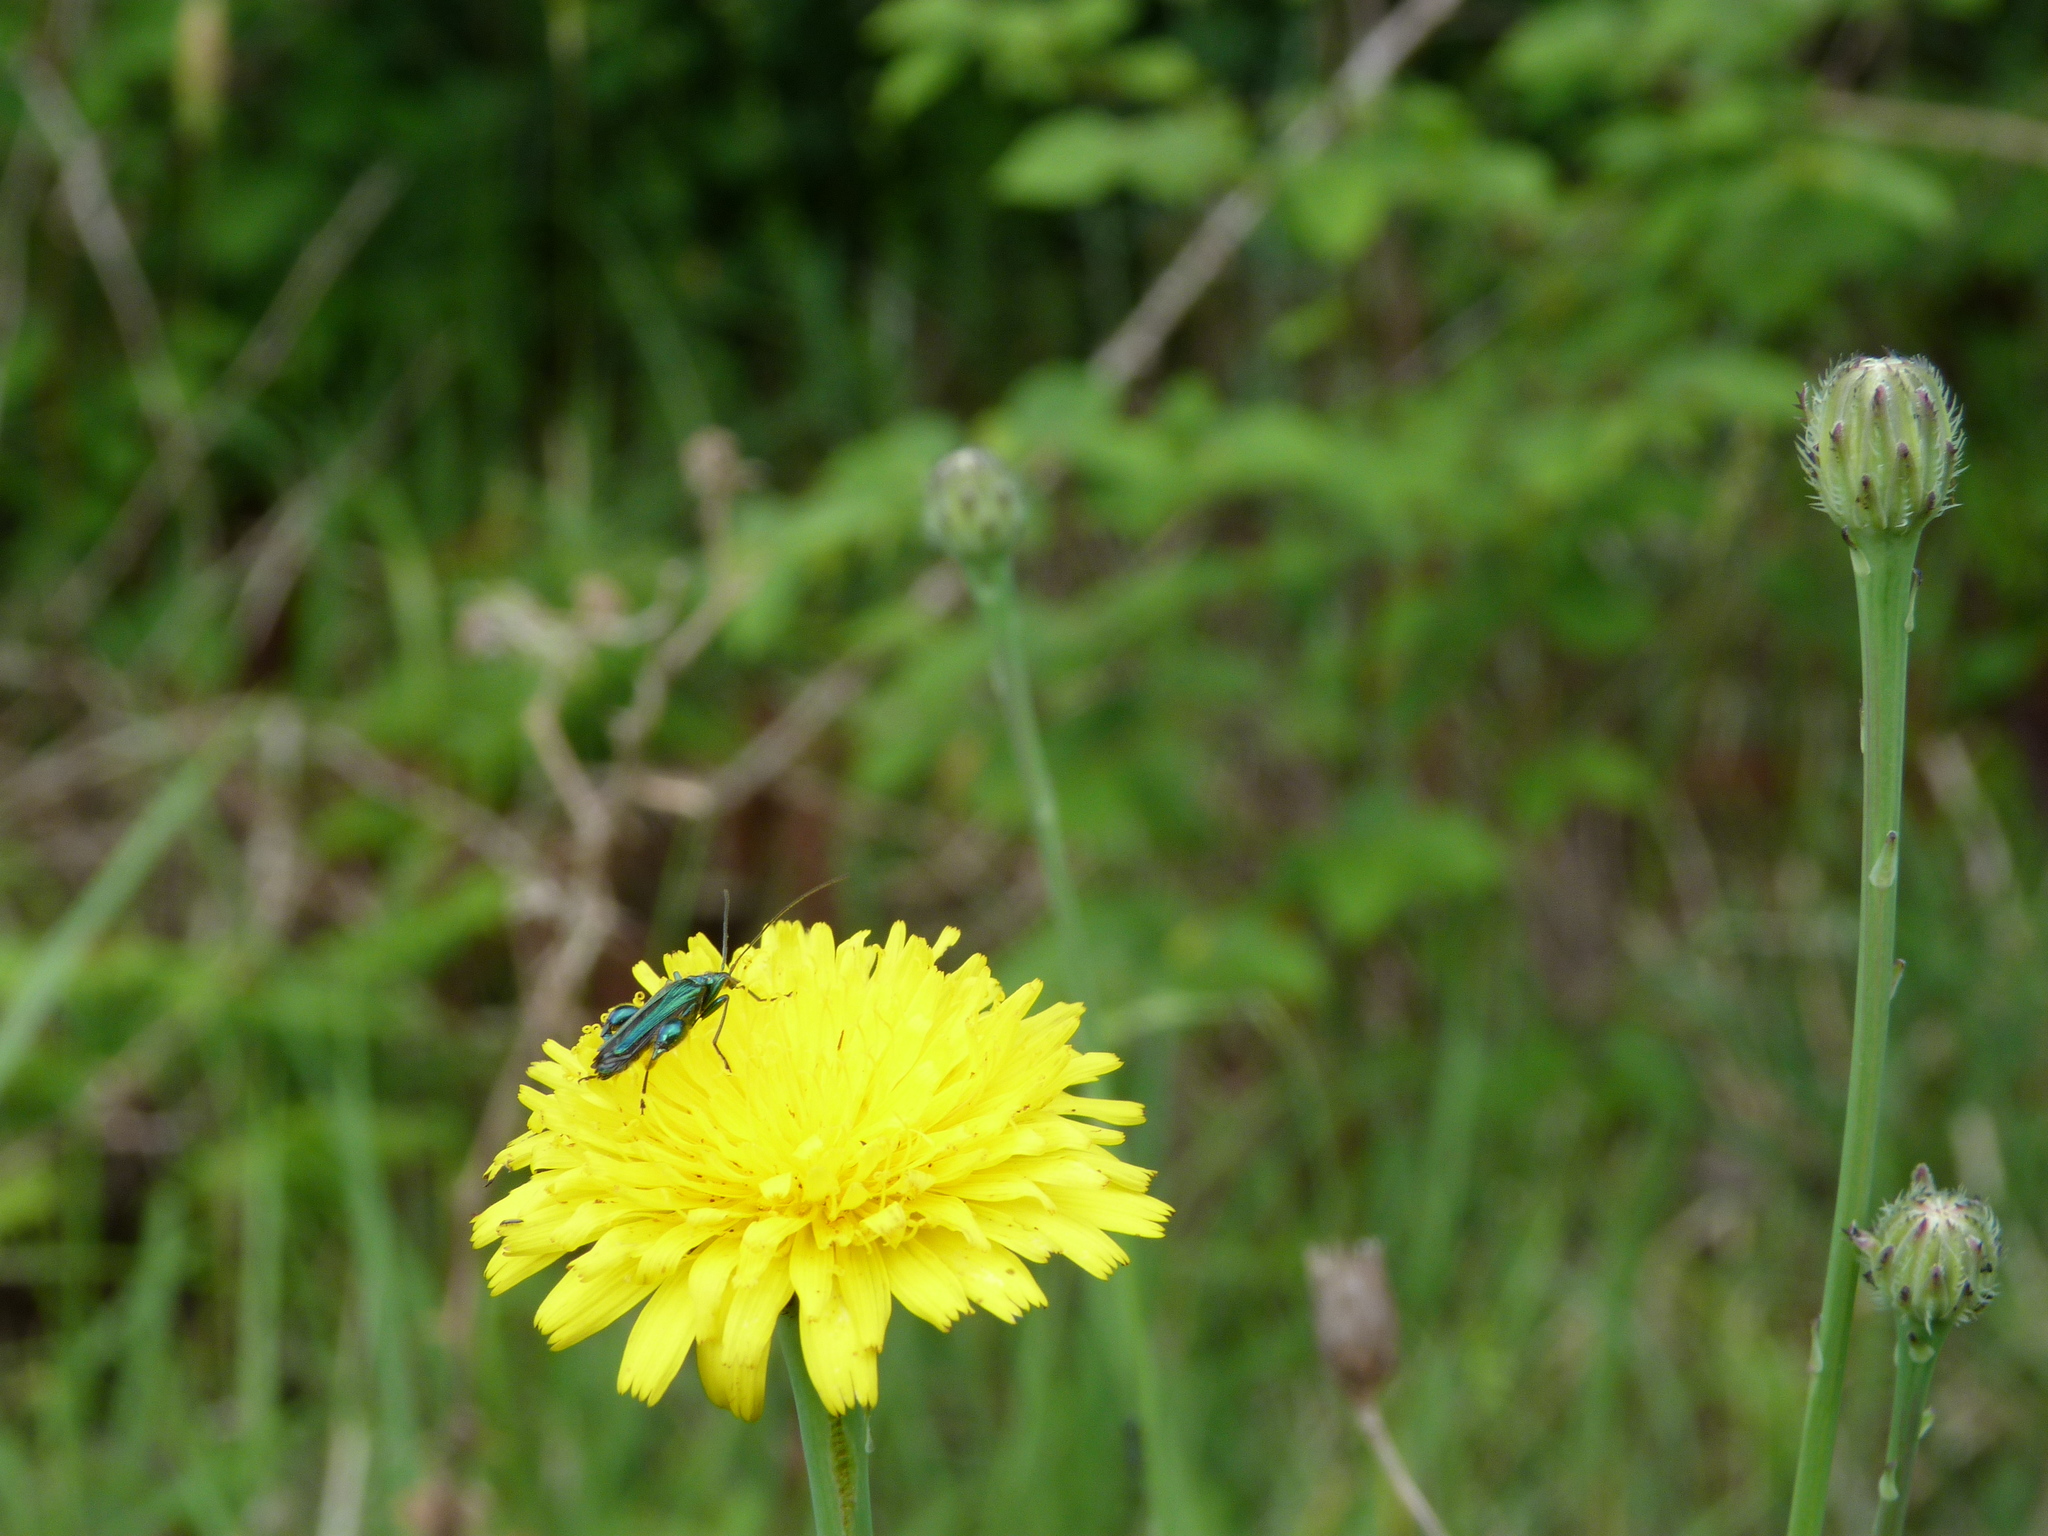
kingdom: Animalia
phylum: Arthropoda
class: Insecta
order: Coleoptera
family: Oedemeridae
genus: Oedemera
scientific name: Oedemera nobilis
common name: Swollen-thighed beetle
